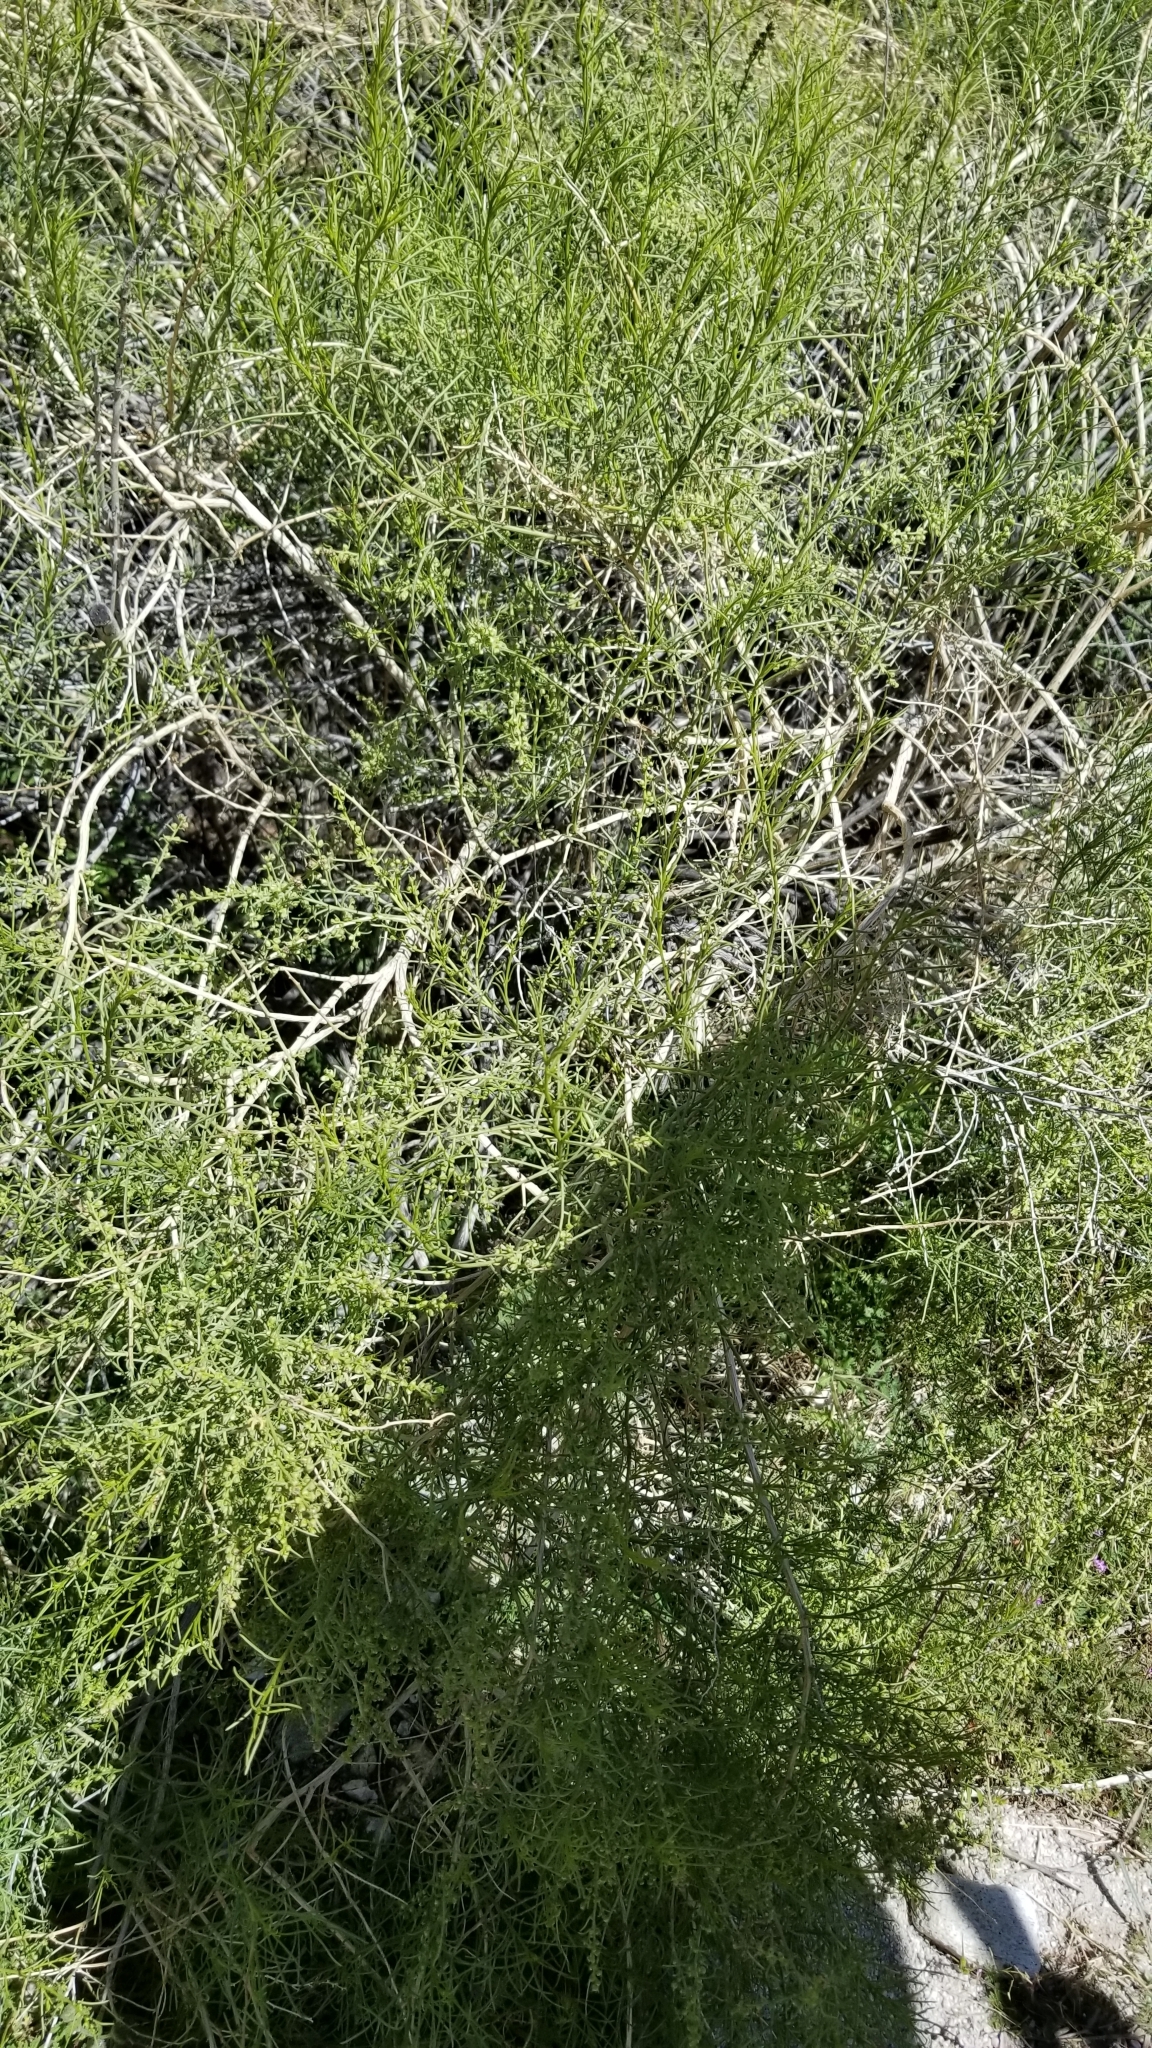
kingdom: Plantae
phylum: Tracheophyta
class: Magnoliopsida
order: Asterales
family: Asteraceae
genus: Ambrosia
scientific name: Ambrosia salsola
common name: Burrobrush
